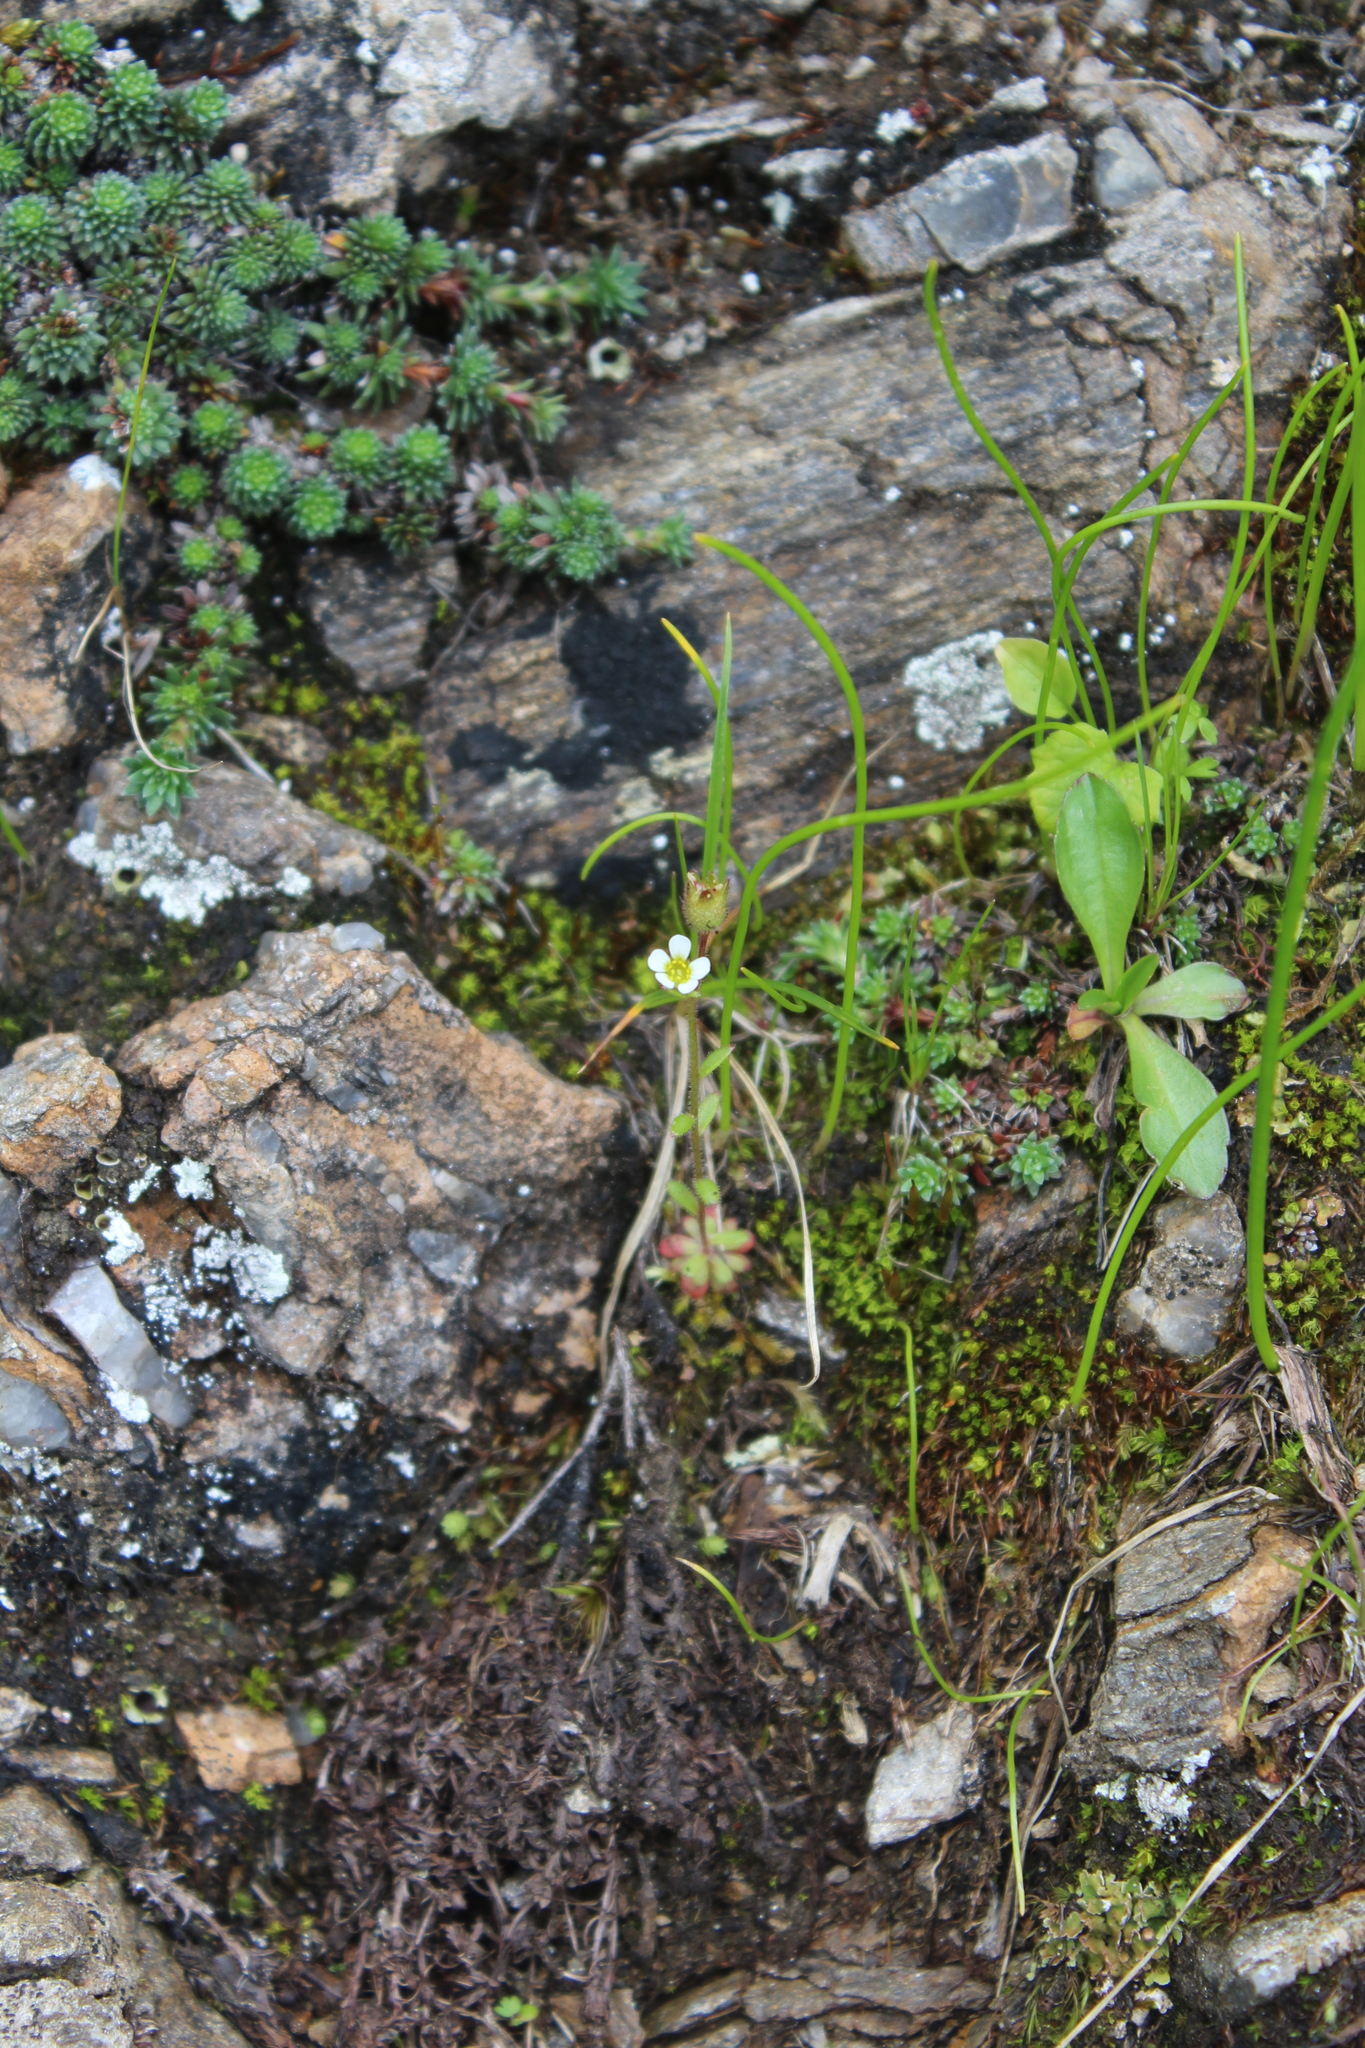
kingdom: Plantae
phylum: Tracheophyta
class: Magnoliopsida
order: Saxifragales
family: Saxifragaceae
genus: Saxifraga
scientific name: Saxifraga tridactylites
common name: Rue-leaved saxifrage
